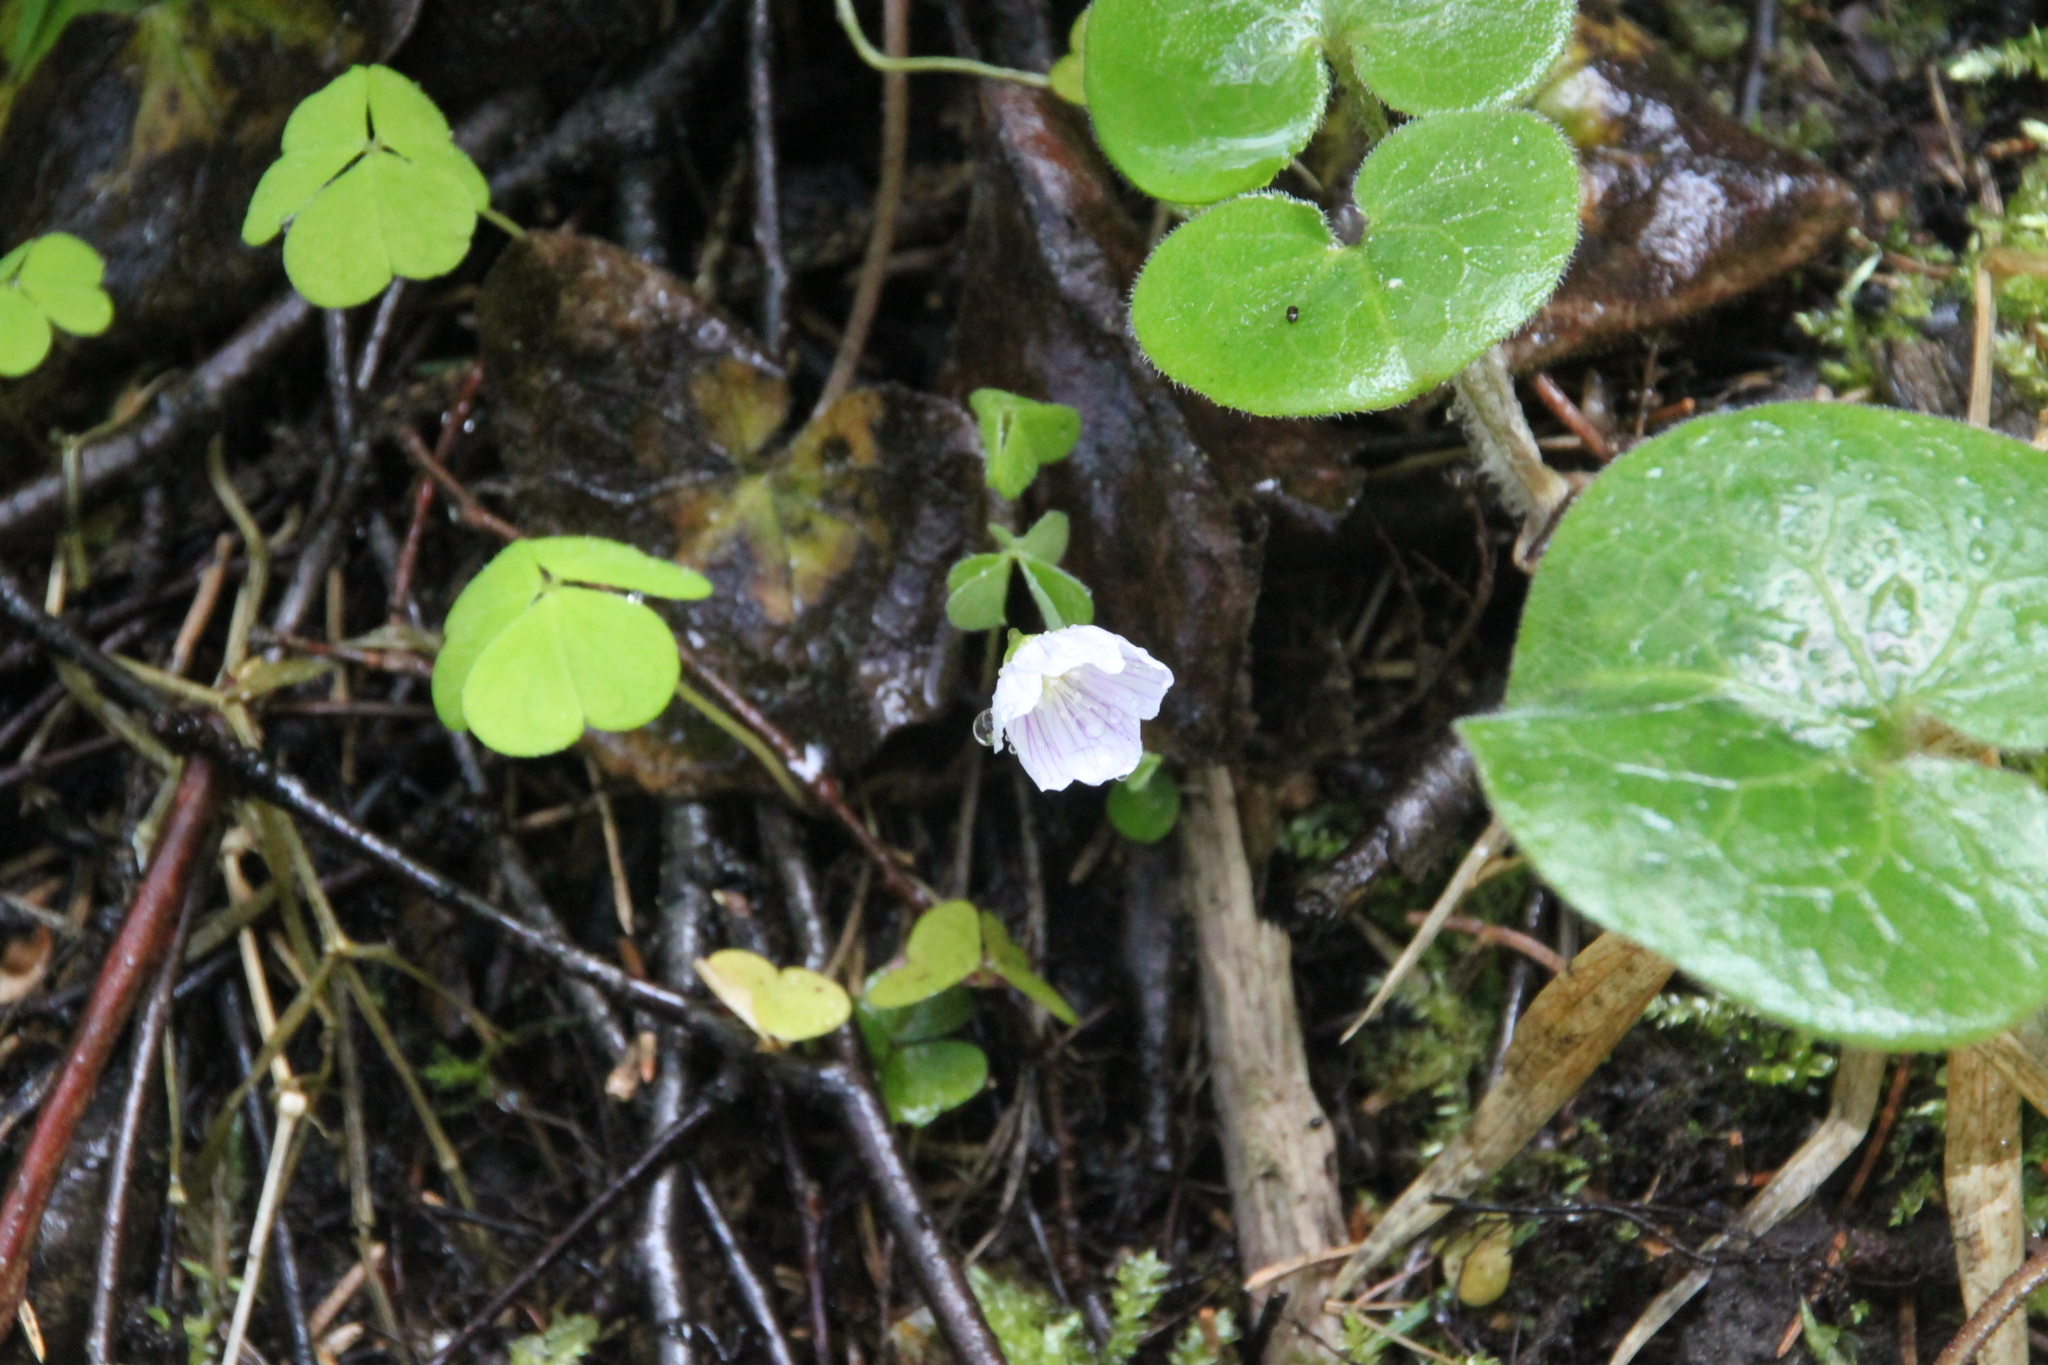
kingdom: Plantae
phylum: Tracheophyta
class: Magnoliopsida
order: Oxalidales
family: Oxalidaceae
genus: Oxalis
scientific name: Oxalis acetosella
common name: Wood-sorrel
